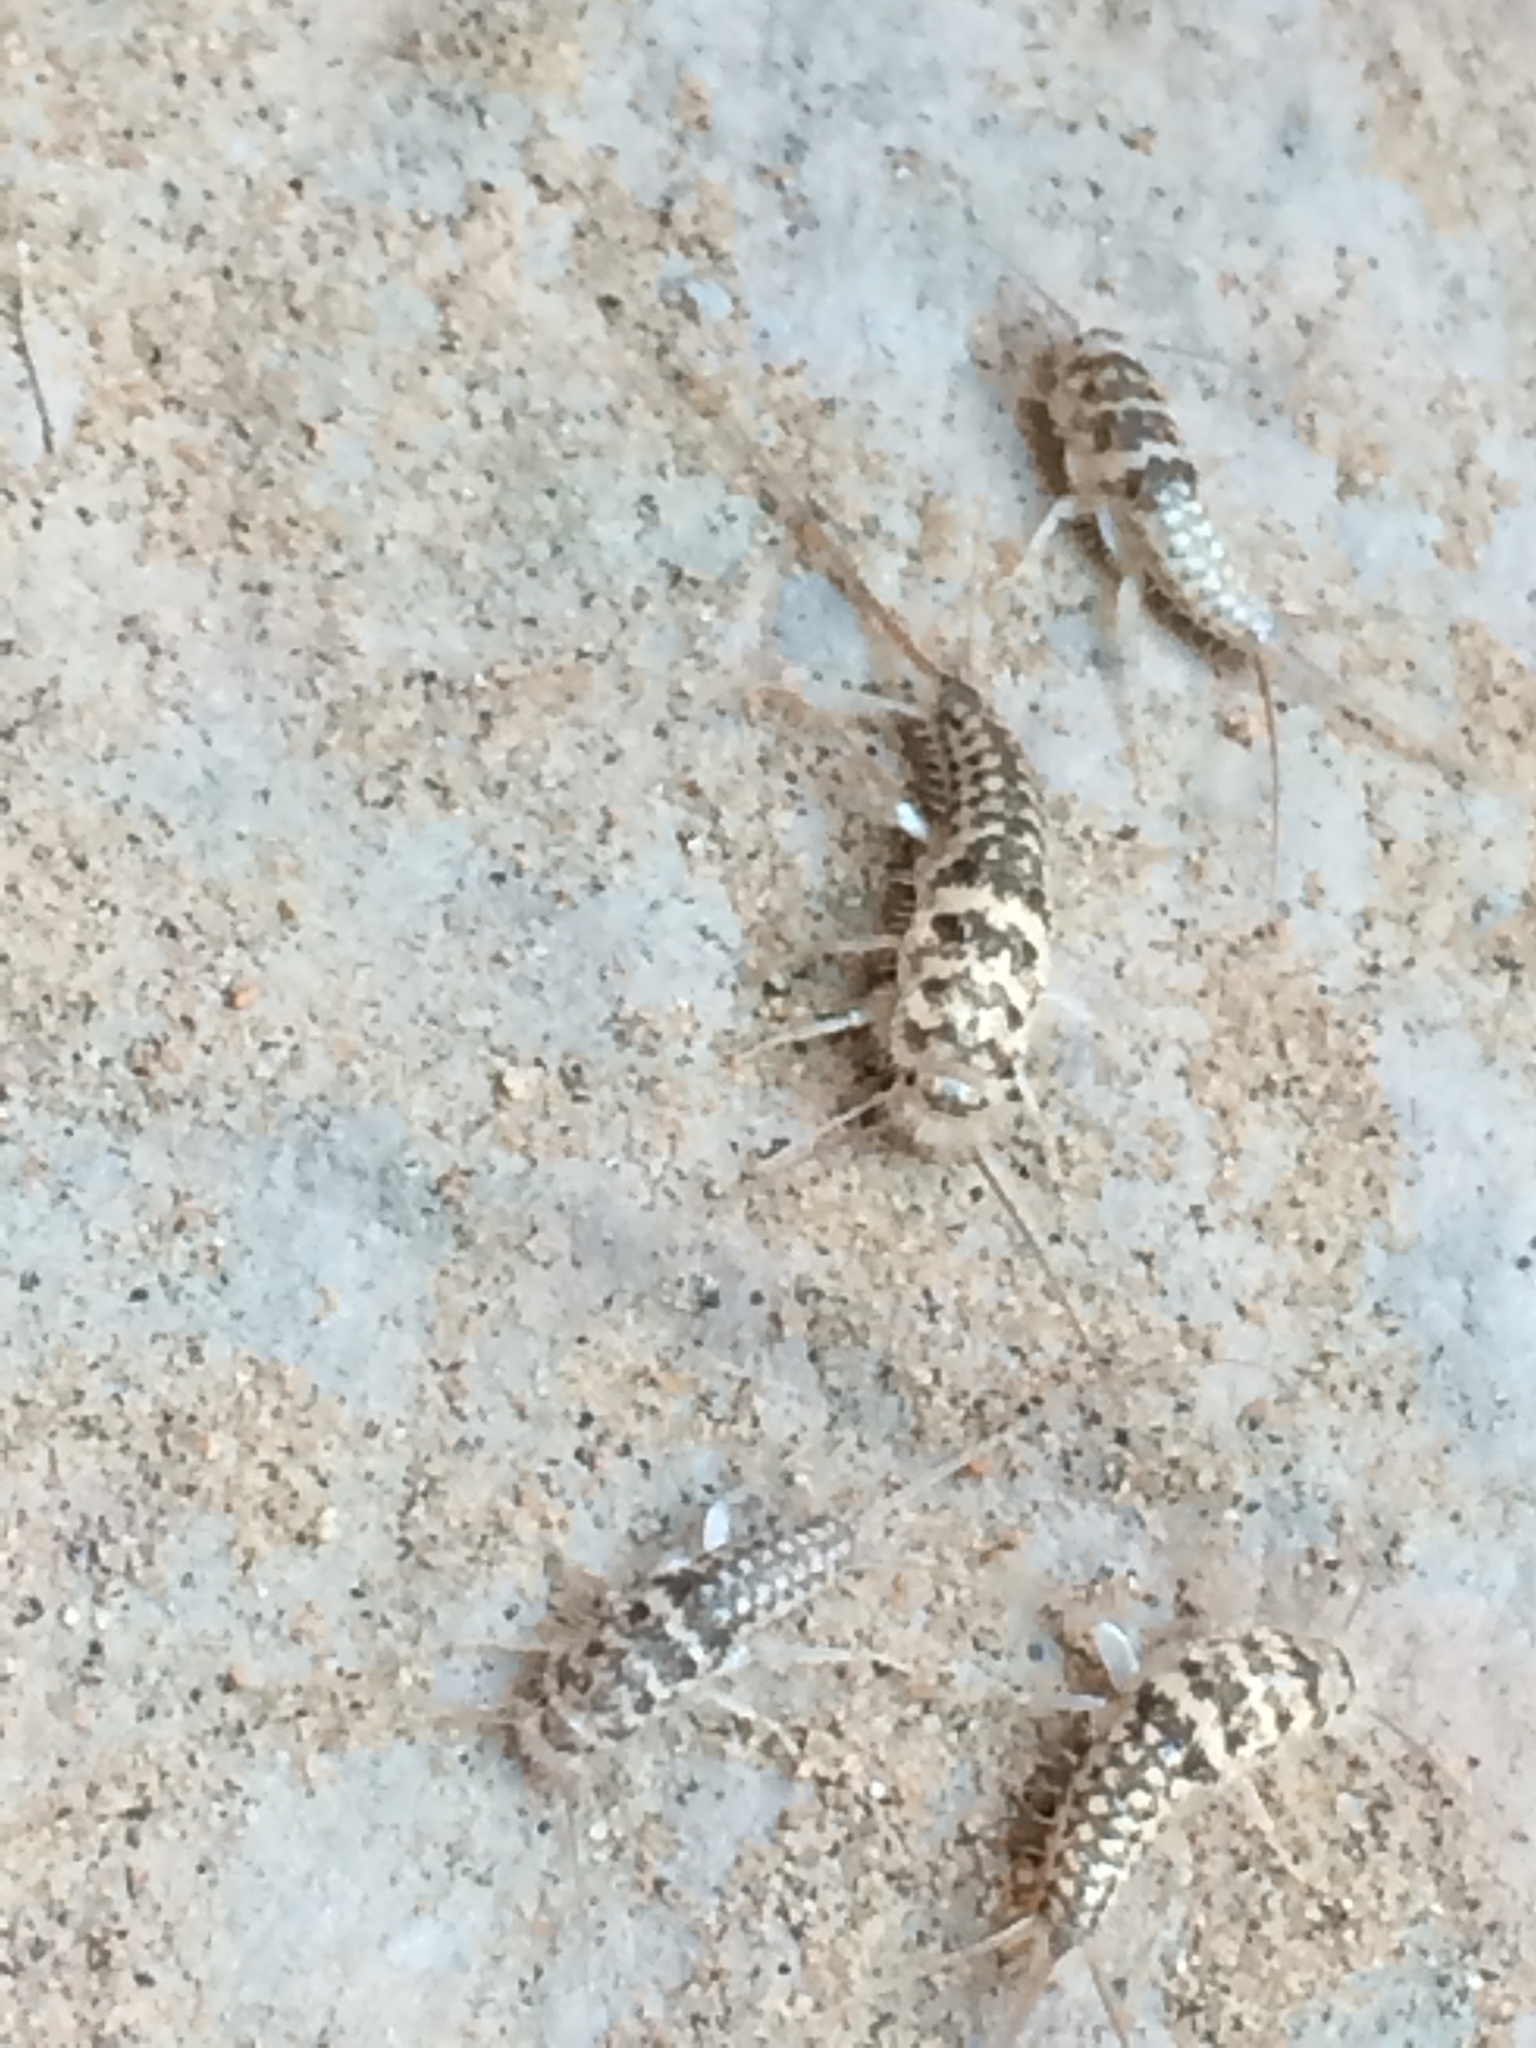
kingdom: Animalia
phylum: Arthropoda
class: Insecta
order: Zygentoma
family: Lepismatidae
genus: Leucolepisma
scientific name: Leucolepisma arenaria
